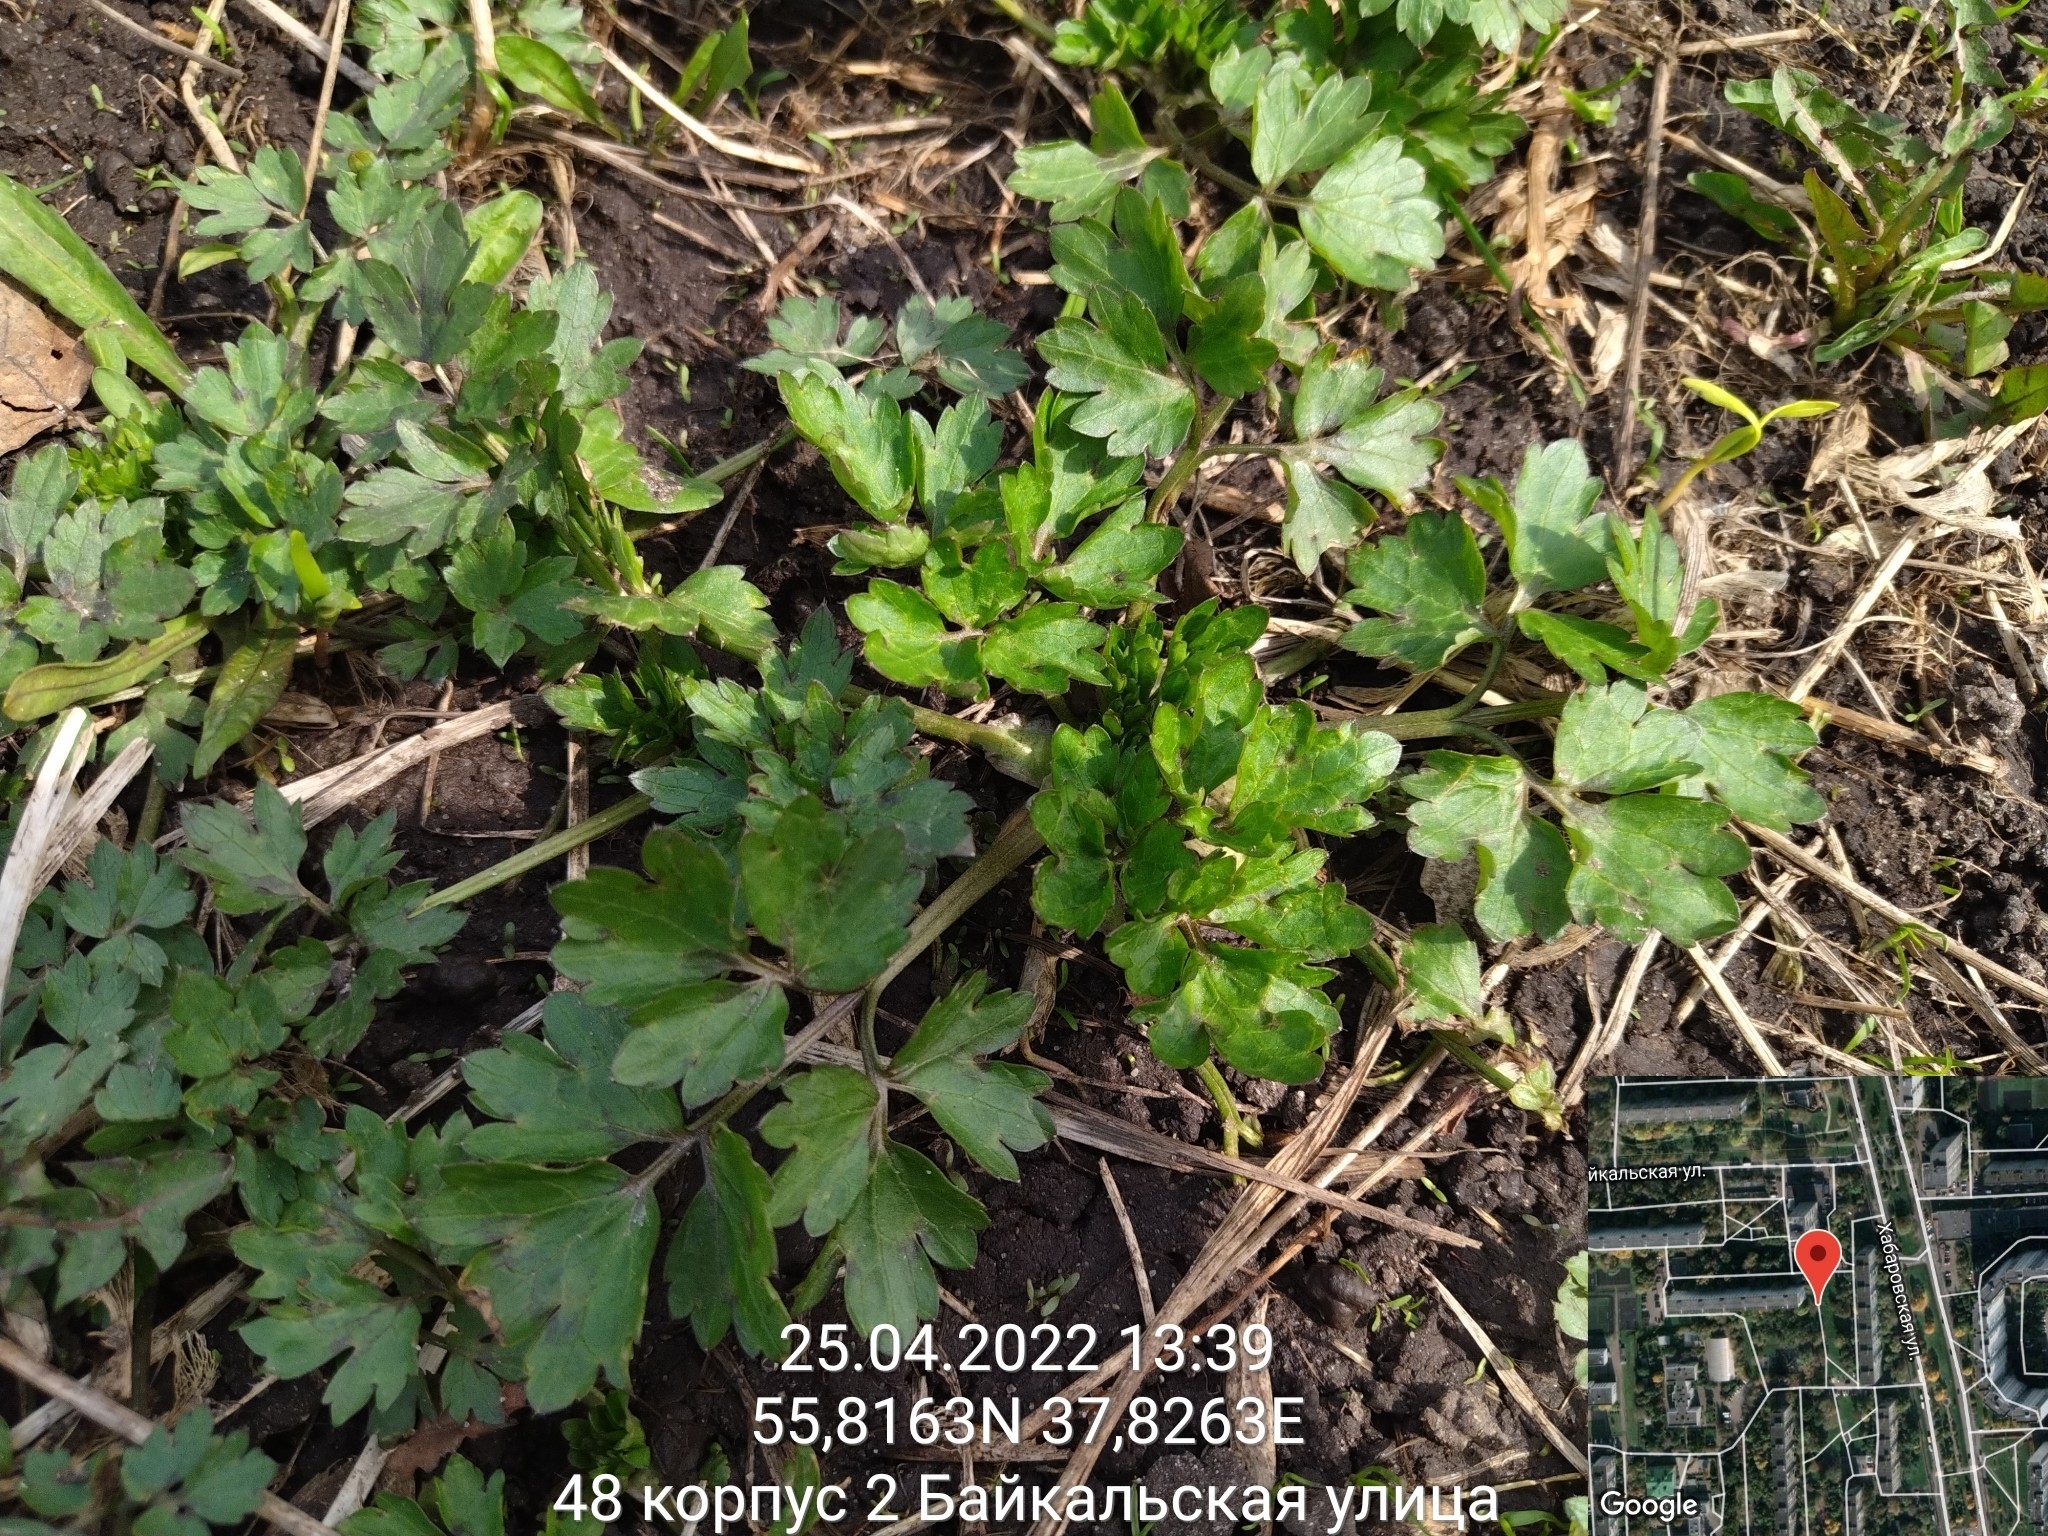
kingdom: Plantae
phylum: Tracheophyta
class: Magnoliopsida
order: Ranunculales
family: Ranunculaceae
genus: Ranunculus
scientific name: Ranunculus repens
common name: Creeping buttercup
